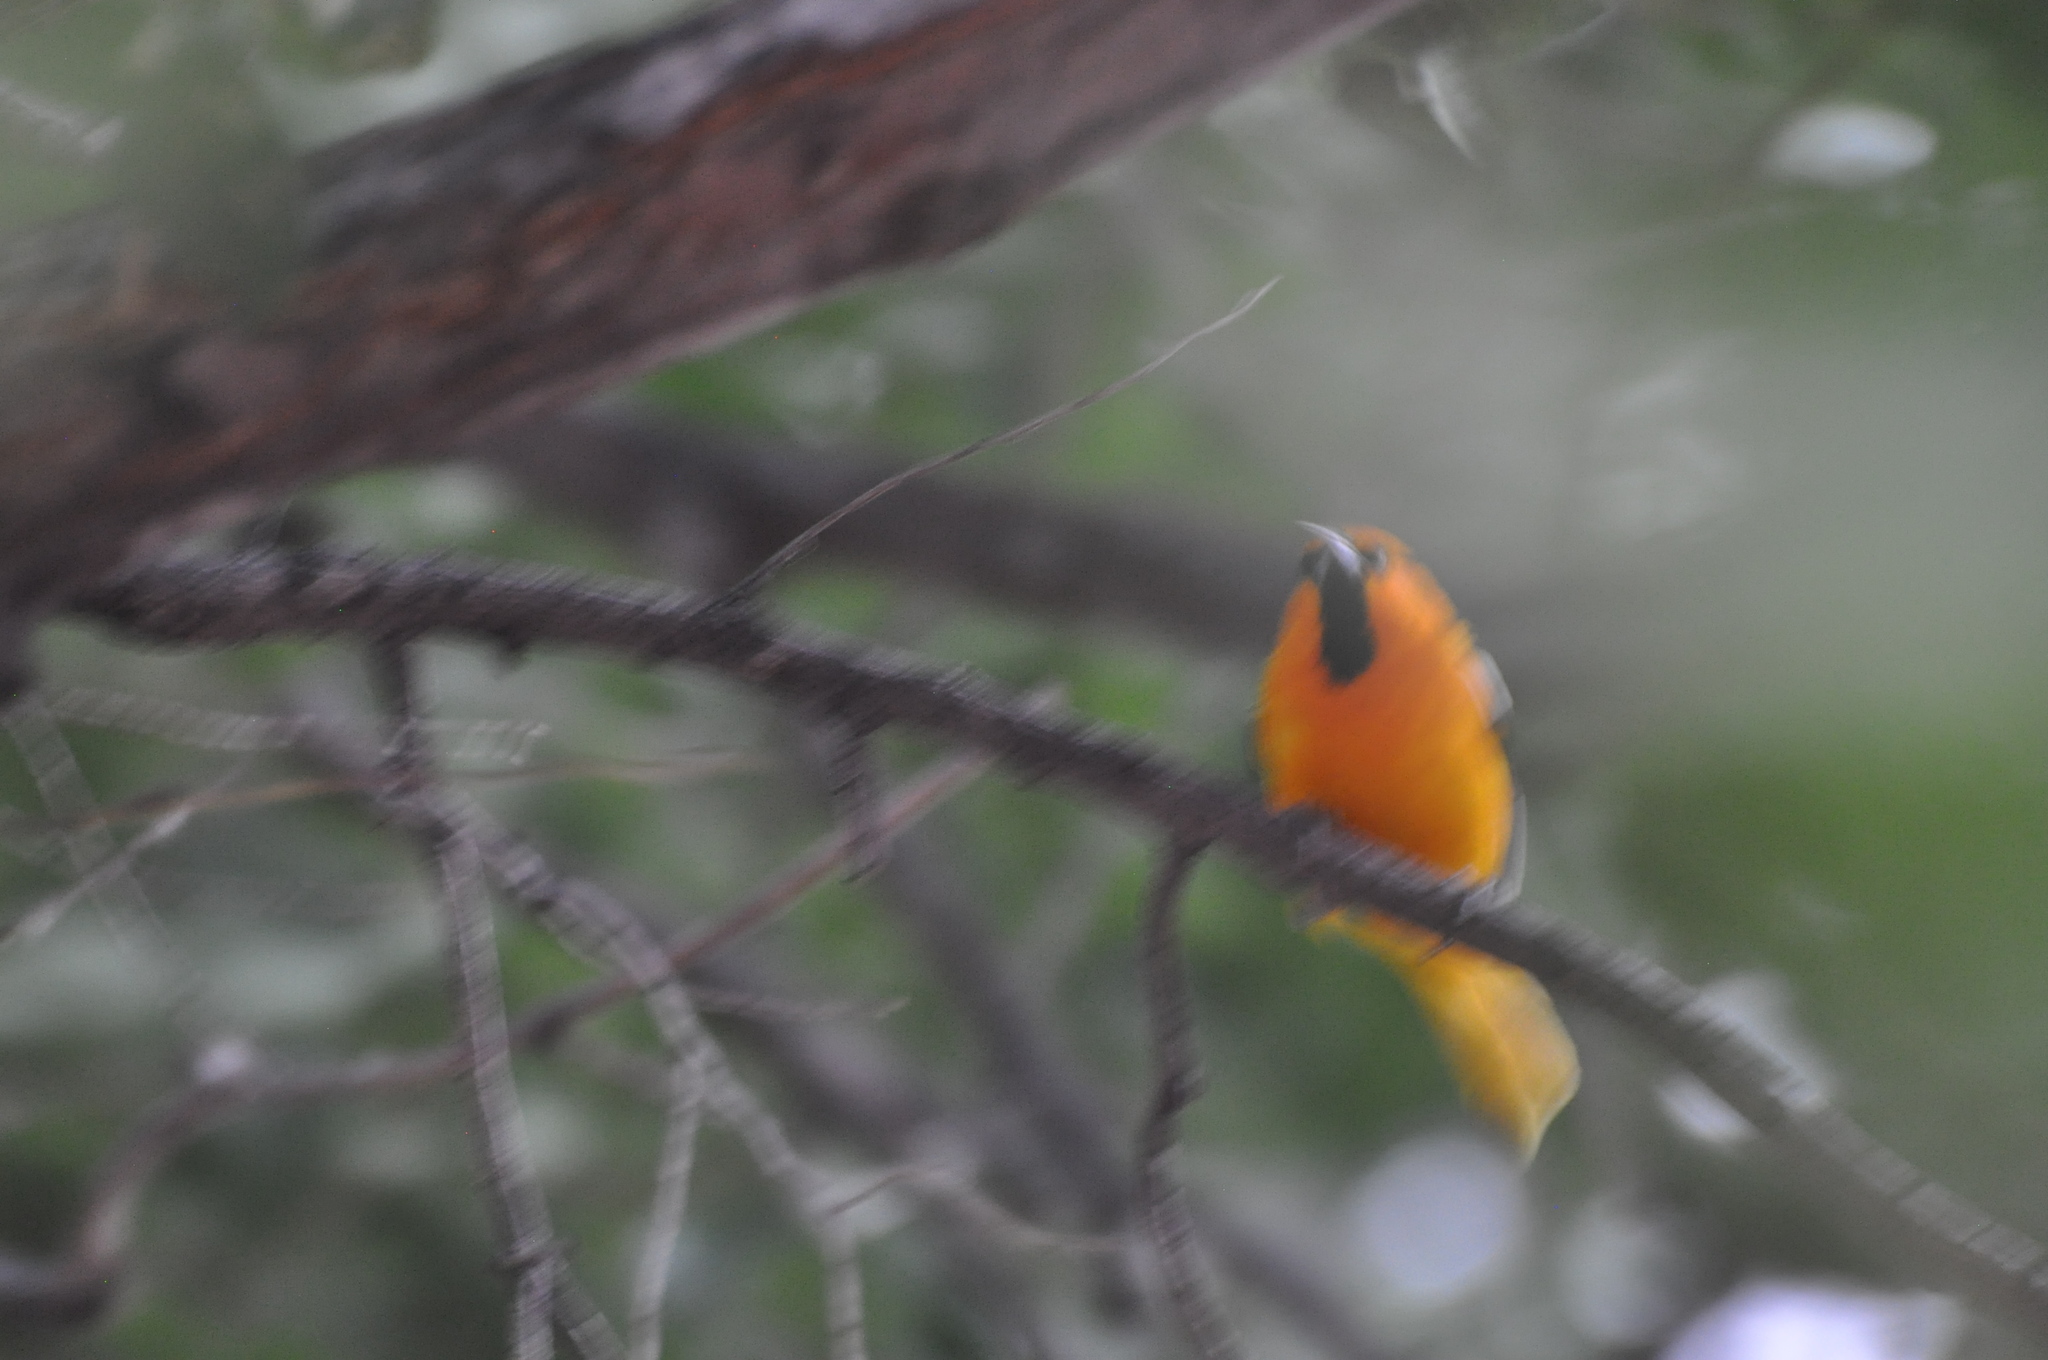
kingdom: Animalia
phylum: Chordata
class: Aves
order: Passeriformes
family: Icteridae
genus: Icterus
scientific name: Icterus bullockii
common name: Bullock's oriole
